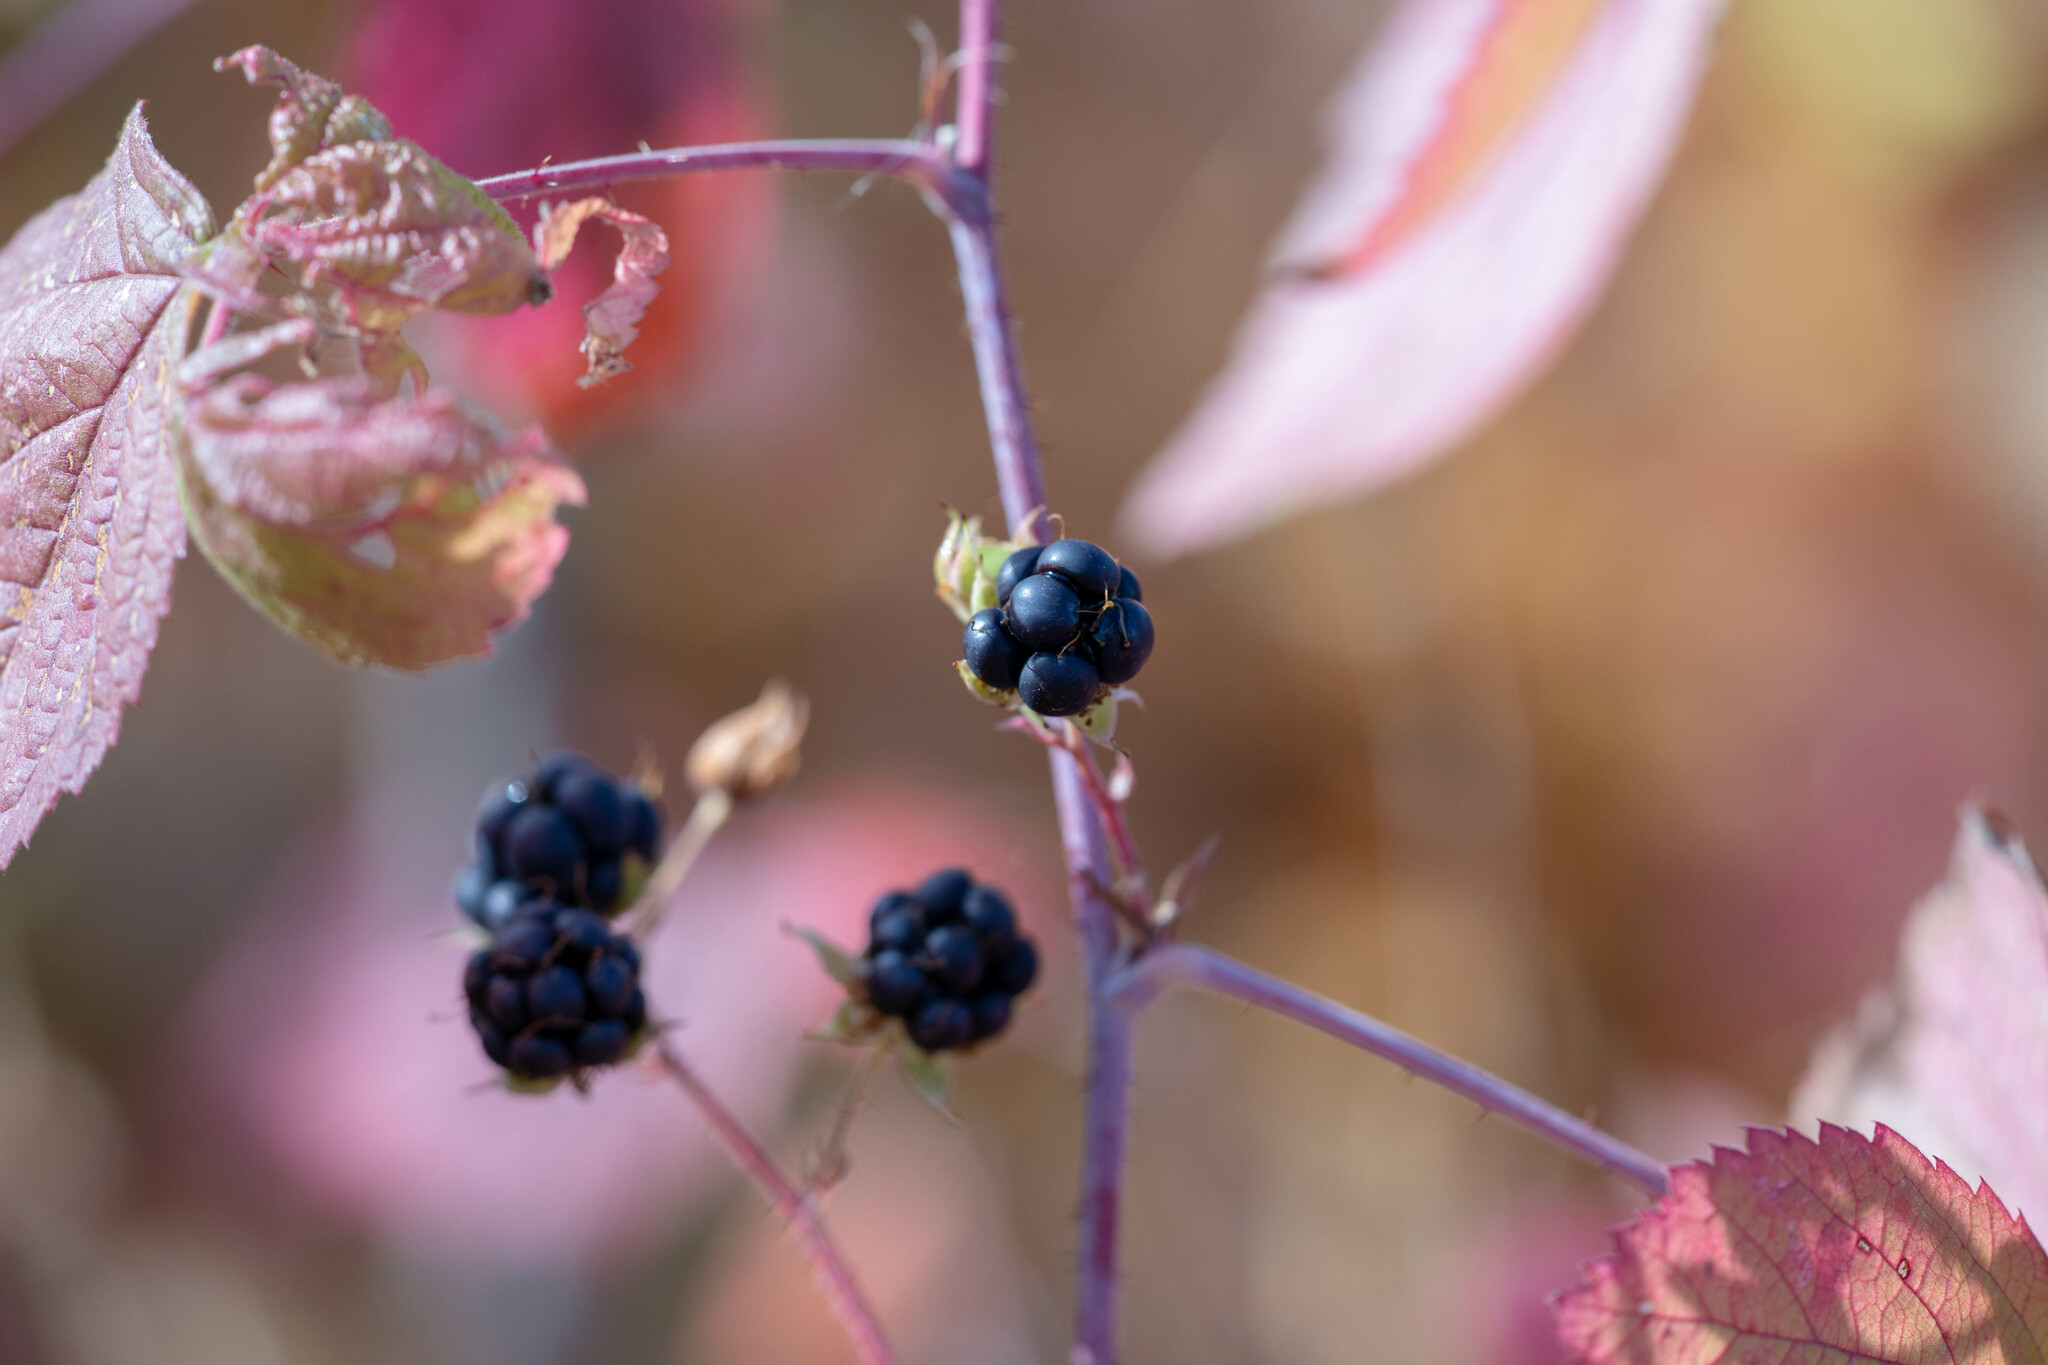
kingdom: Plantae
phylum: Tracheophyta
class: Magnoliopsida
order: Rosales
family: Rosaceae
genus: Rubus
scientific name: Rubus caesius
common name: Dewberry
